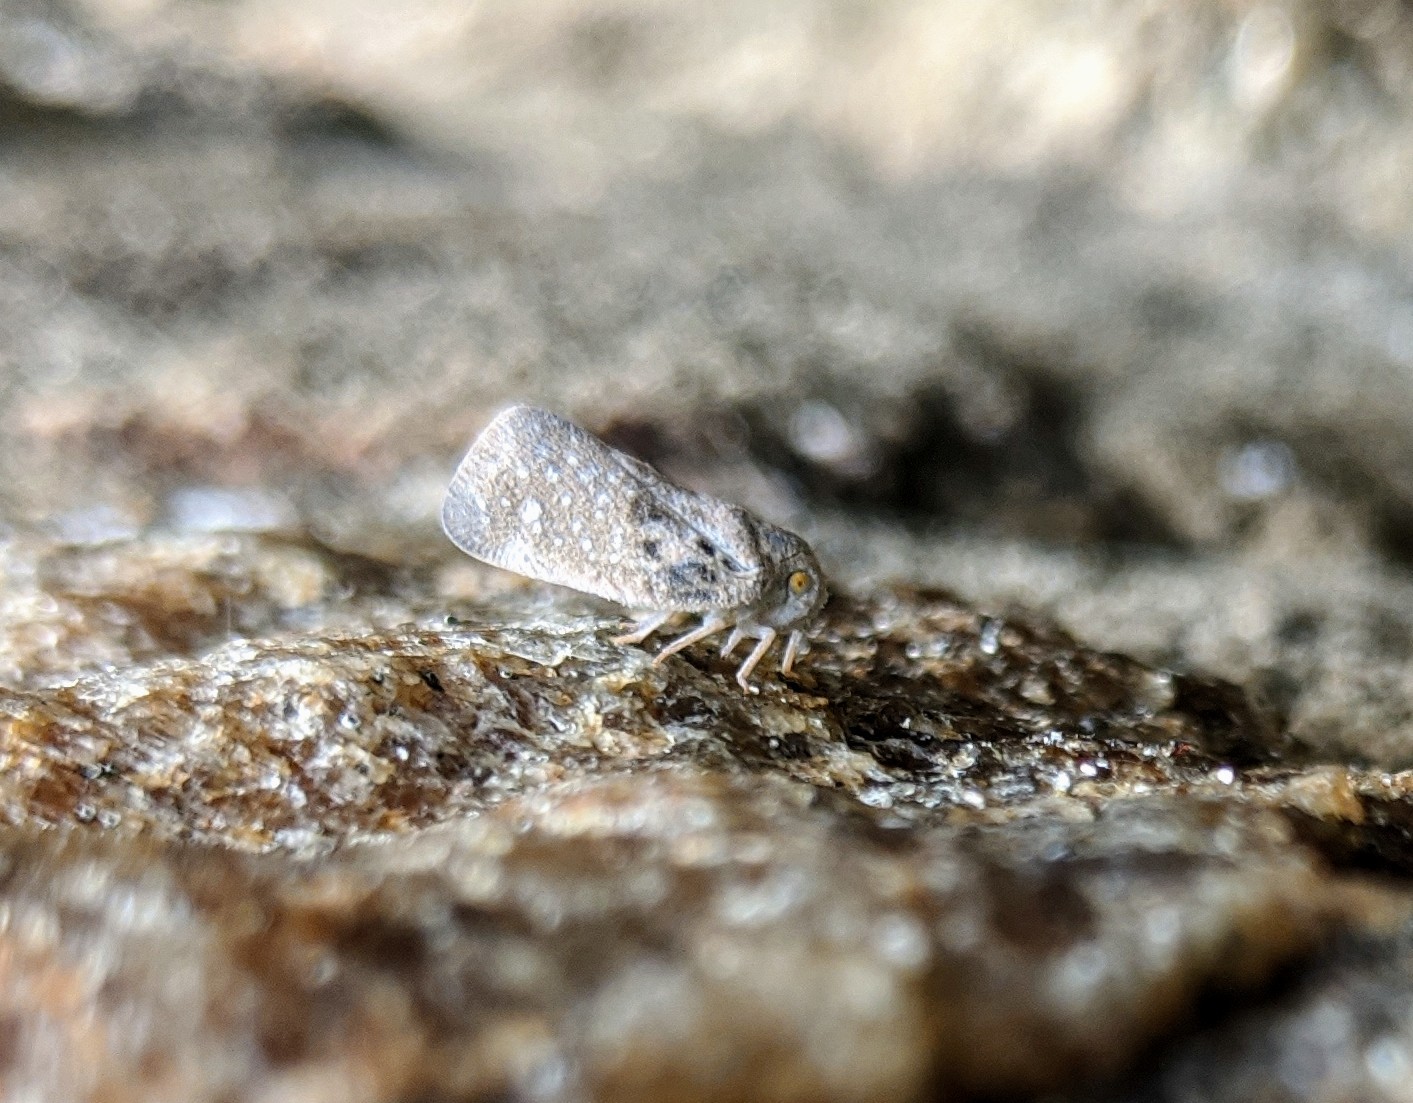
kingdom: Animalia
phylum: Arthropoda
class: Insecta
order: Hemiptera
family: Flatidae
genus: Metcalfa
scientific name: Metcalfa pruinosa
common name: Citrus flatid planthopper
